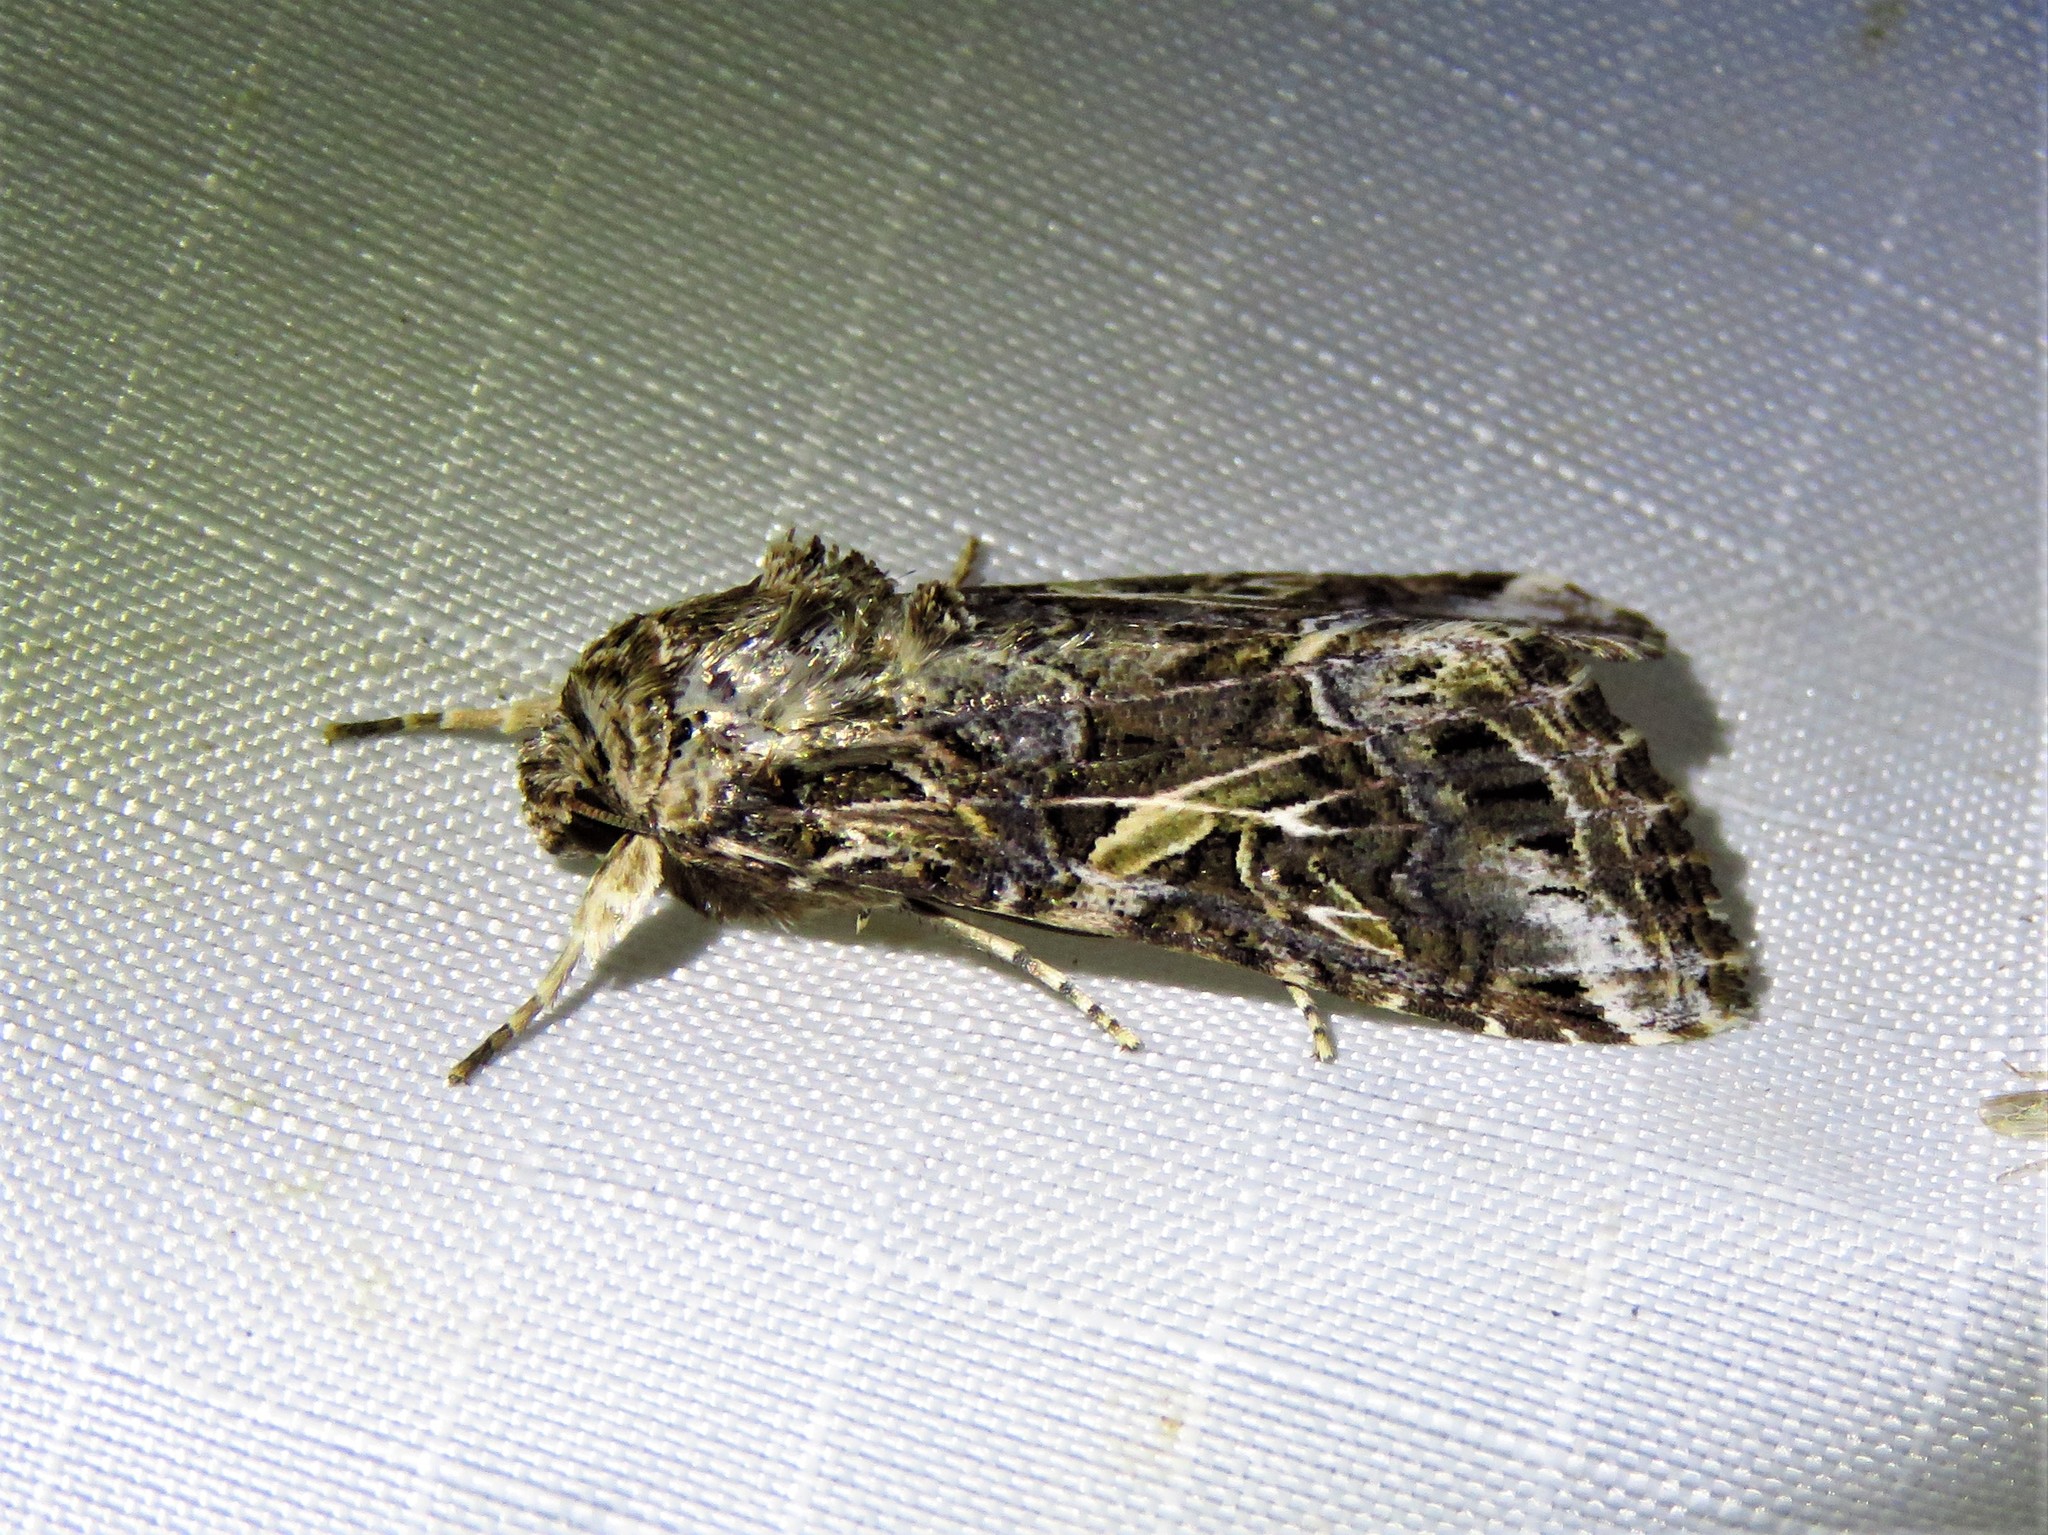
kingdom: Animalia
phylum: Arthropoda
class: Insecta
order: Lepidoptera
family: Noctuidae
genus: Spodoptera
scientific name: Spodoptera ornithogalli
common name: Yellow-striped armyworm
